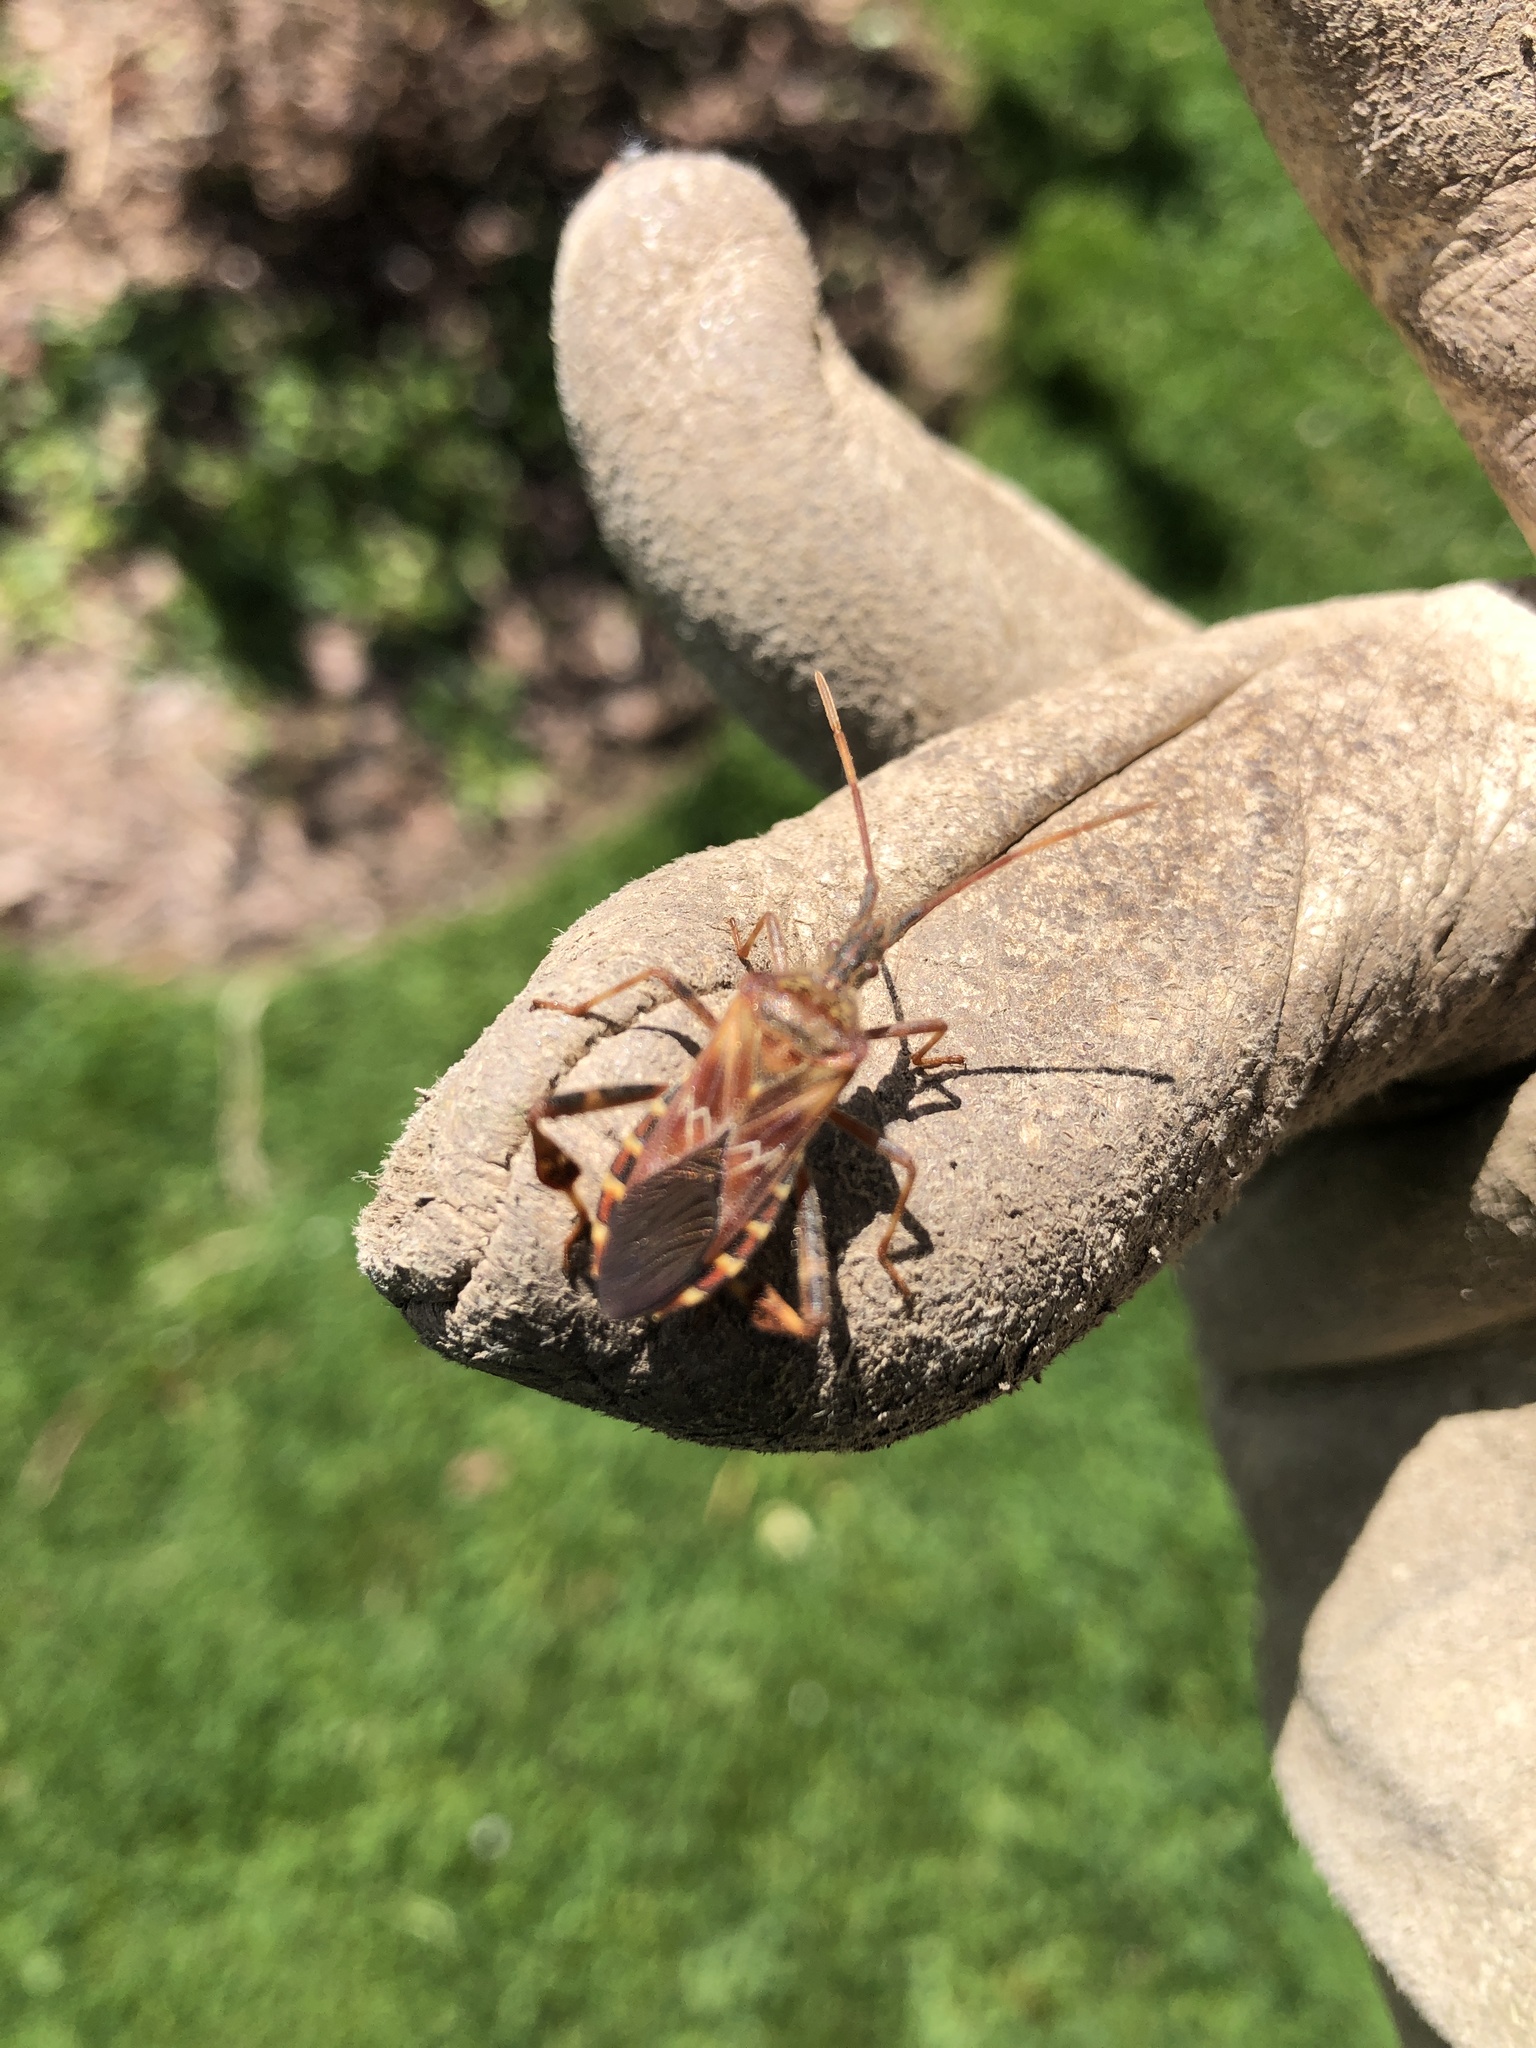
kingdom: Animalia
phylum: Arthropoda
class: Insecta
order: Hemiptera
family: Coreidae
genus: Leptoglossus
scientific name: Leptoglossus occidentalis
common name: Western conifer-seed bug
